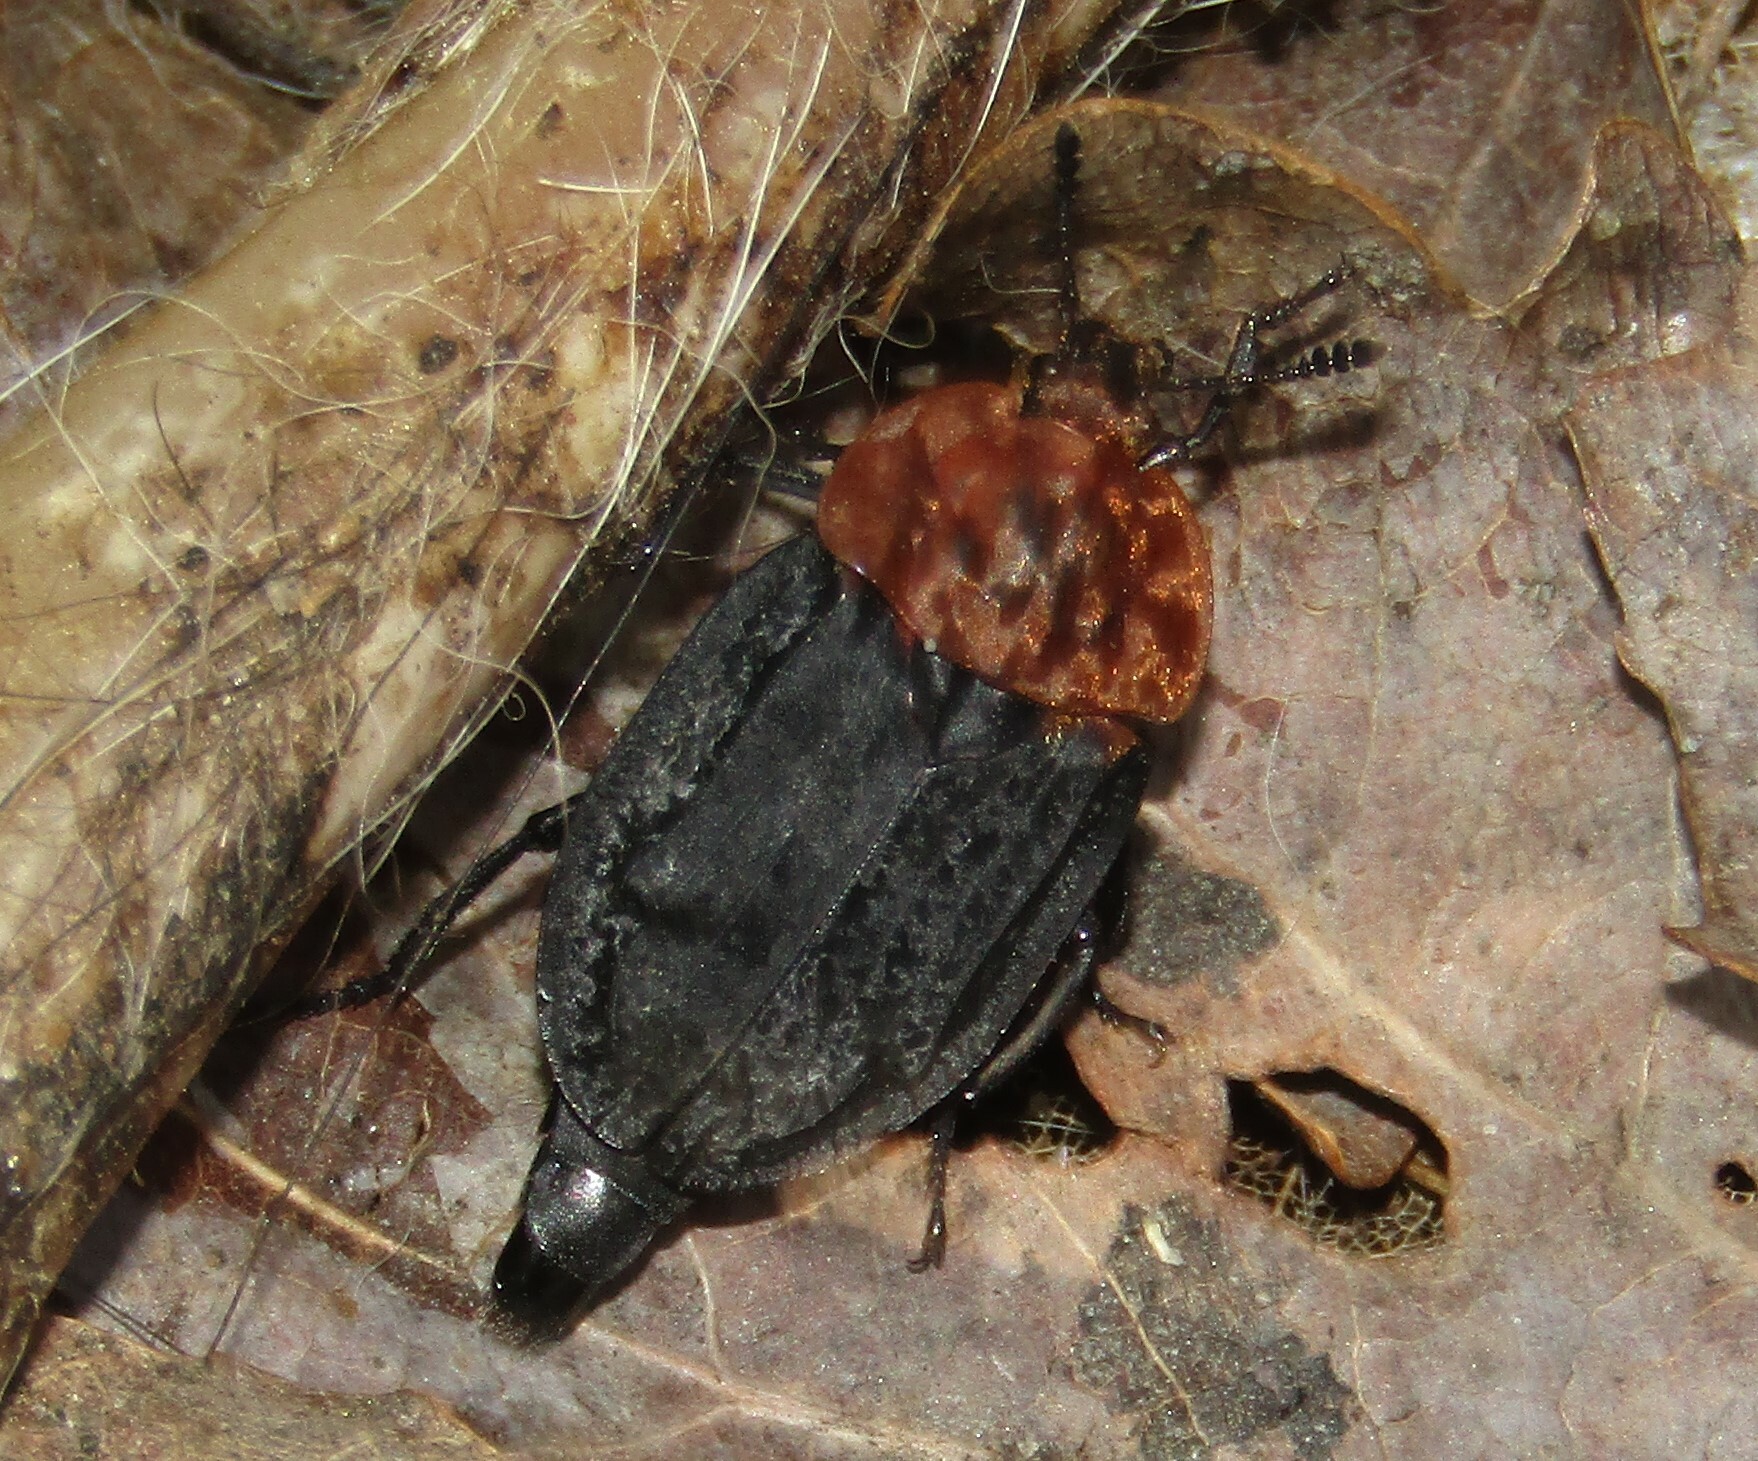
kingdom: Animalia
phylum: Arthropoda
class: Insecta
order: Coleoptera
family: Staphylinidae
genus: Oiceoptoma
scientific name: Oiceoptoma thoracicum
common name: Red-breasted carrion beetle
